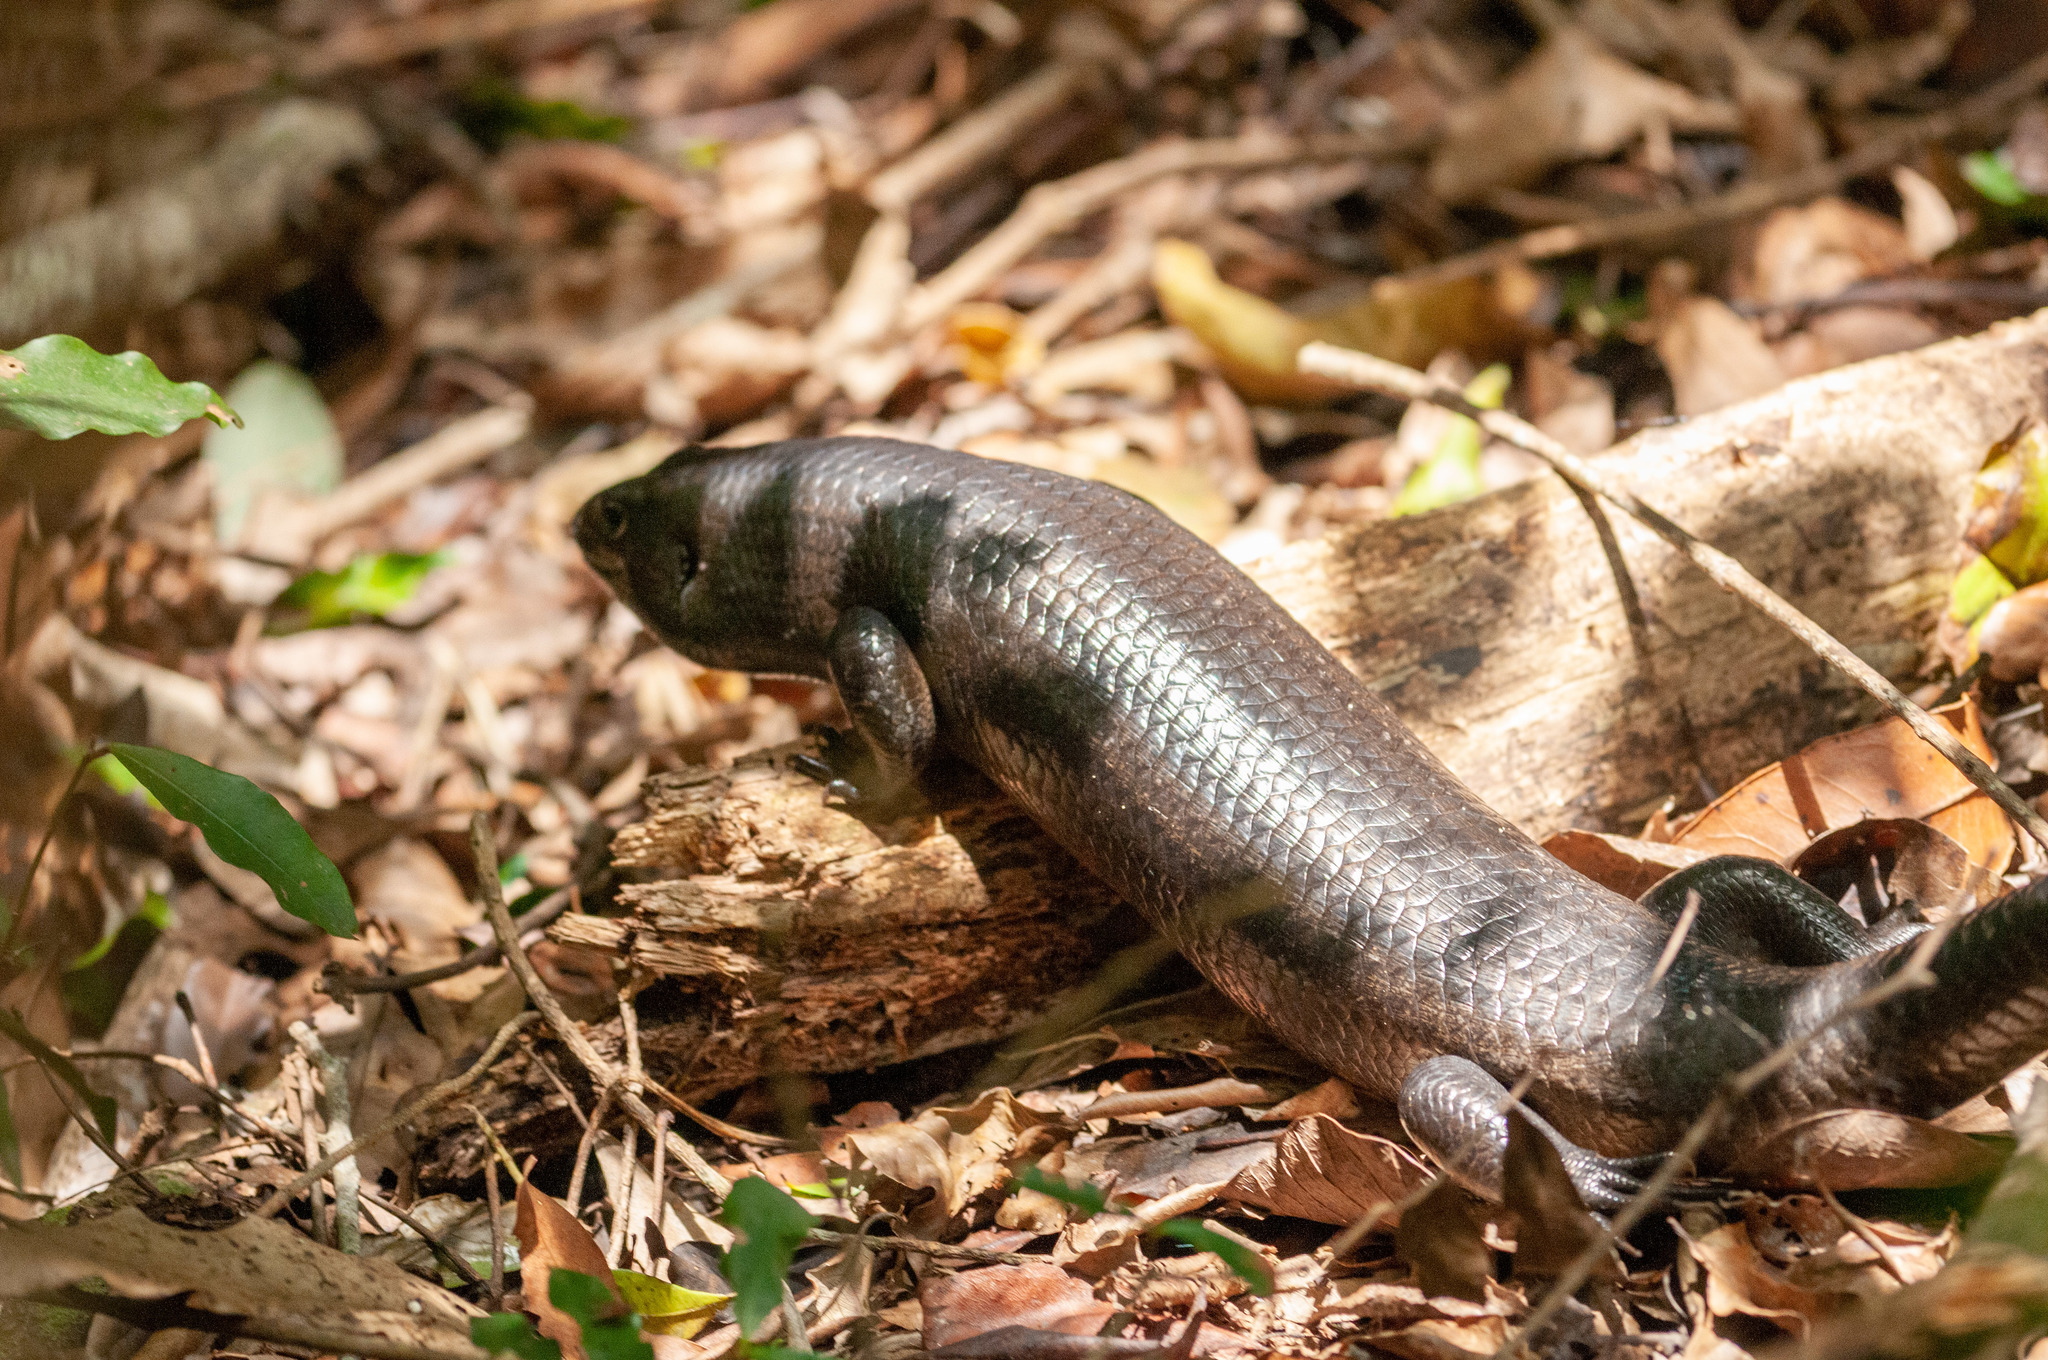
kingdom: Animalia
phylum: Chordata
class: Squamata
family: Scincidae
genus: Bellatorias
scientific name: Bellatorias major
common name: Land mullet
